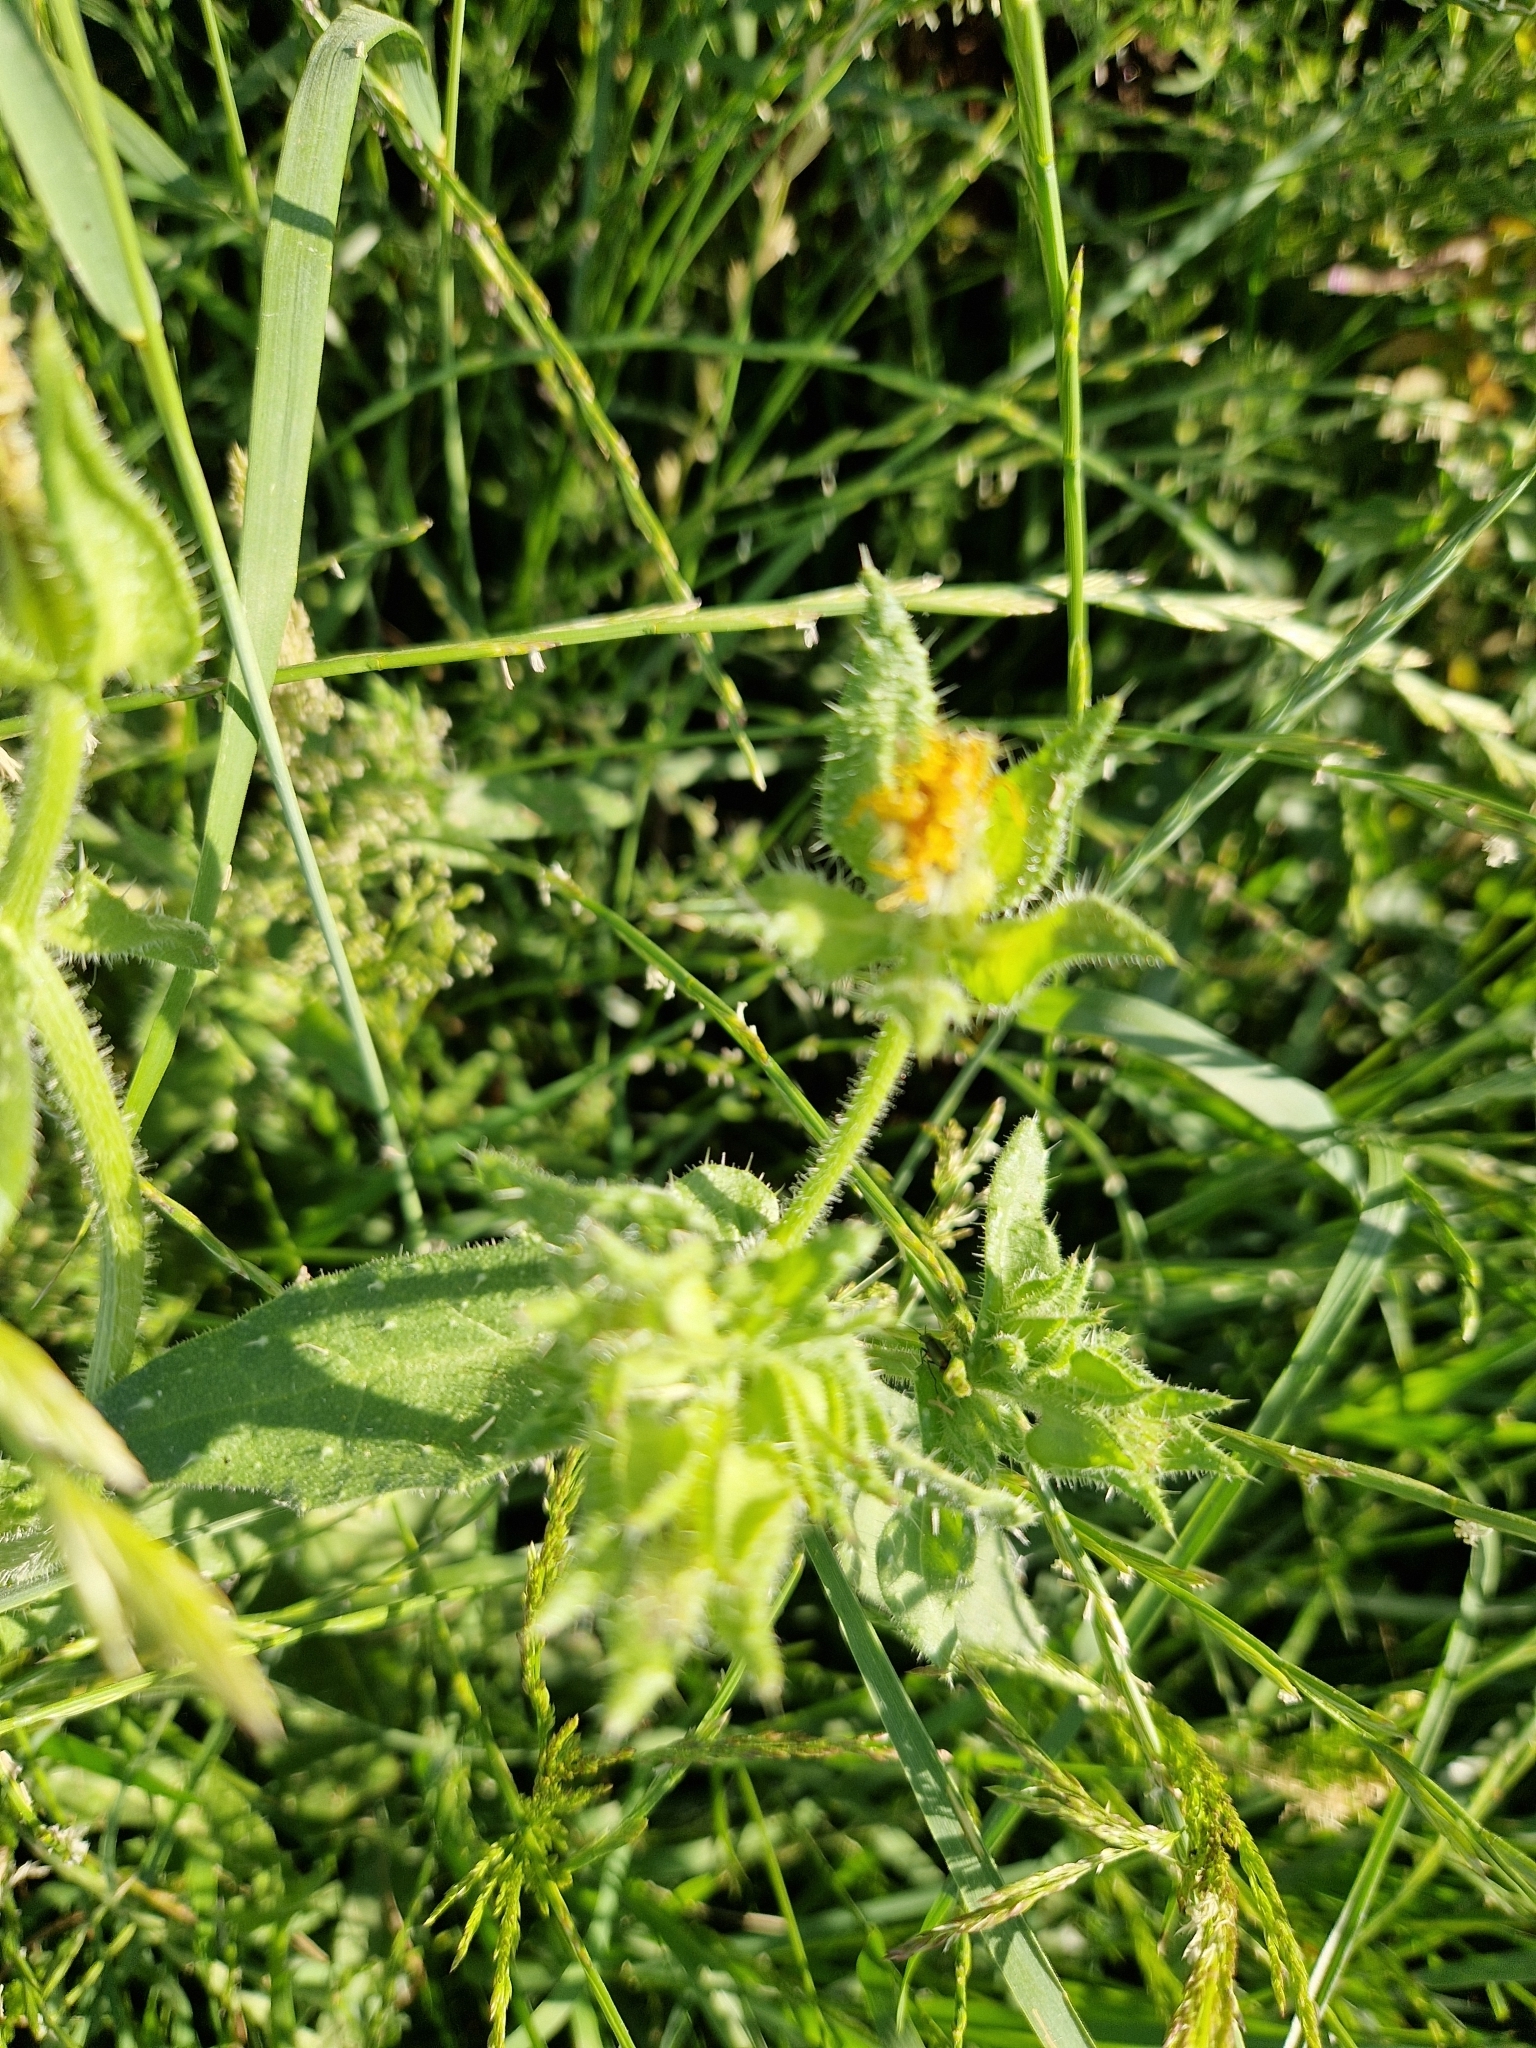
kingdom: Plantae
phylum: Tracheophyta
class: Magnoliopsida
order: Asterales
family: Asteraceae
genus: Helminthotheca
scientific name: Helminthotheca echioides
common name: Ox-tongue
